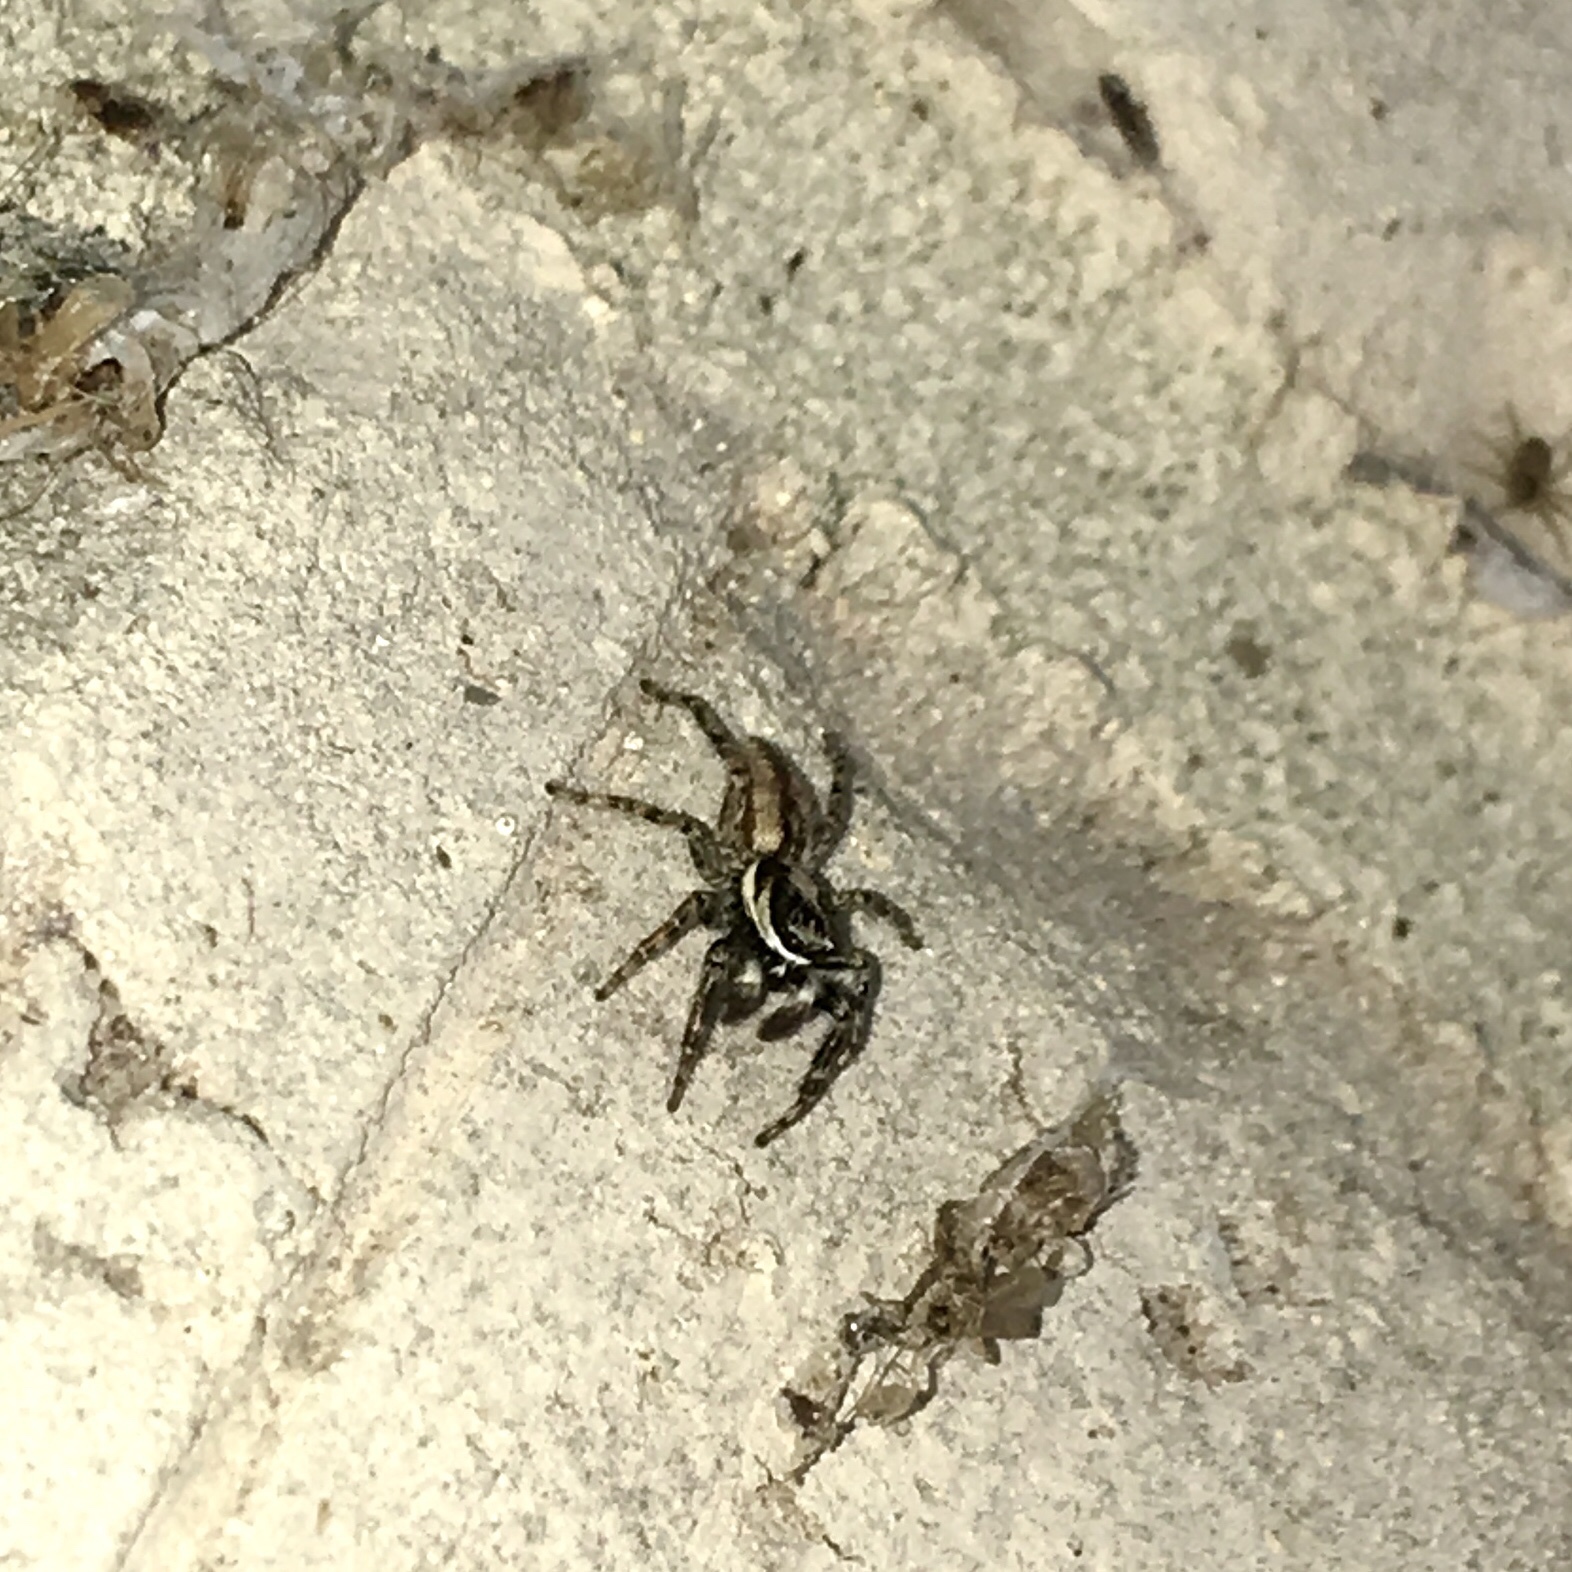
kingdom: Animalia
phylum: Arthropoda
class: Arachnida
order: Araneae
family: Salticidae
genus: Menemerus
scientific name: Menemerus bivittatus
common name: Gray wall jumper
